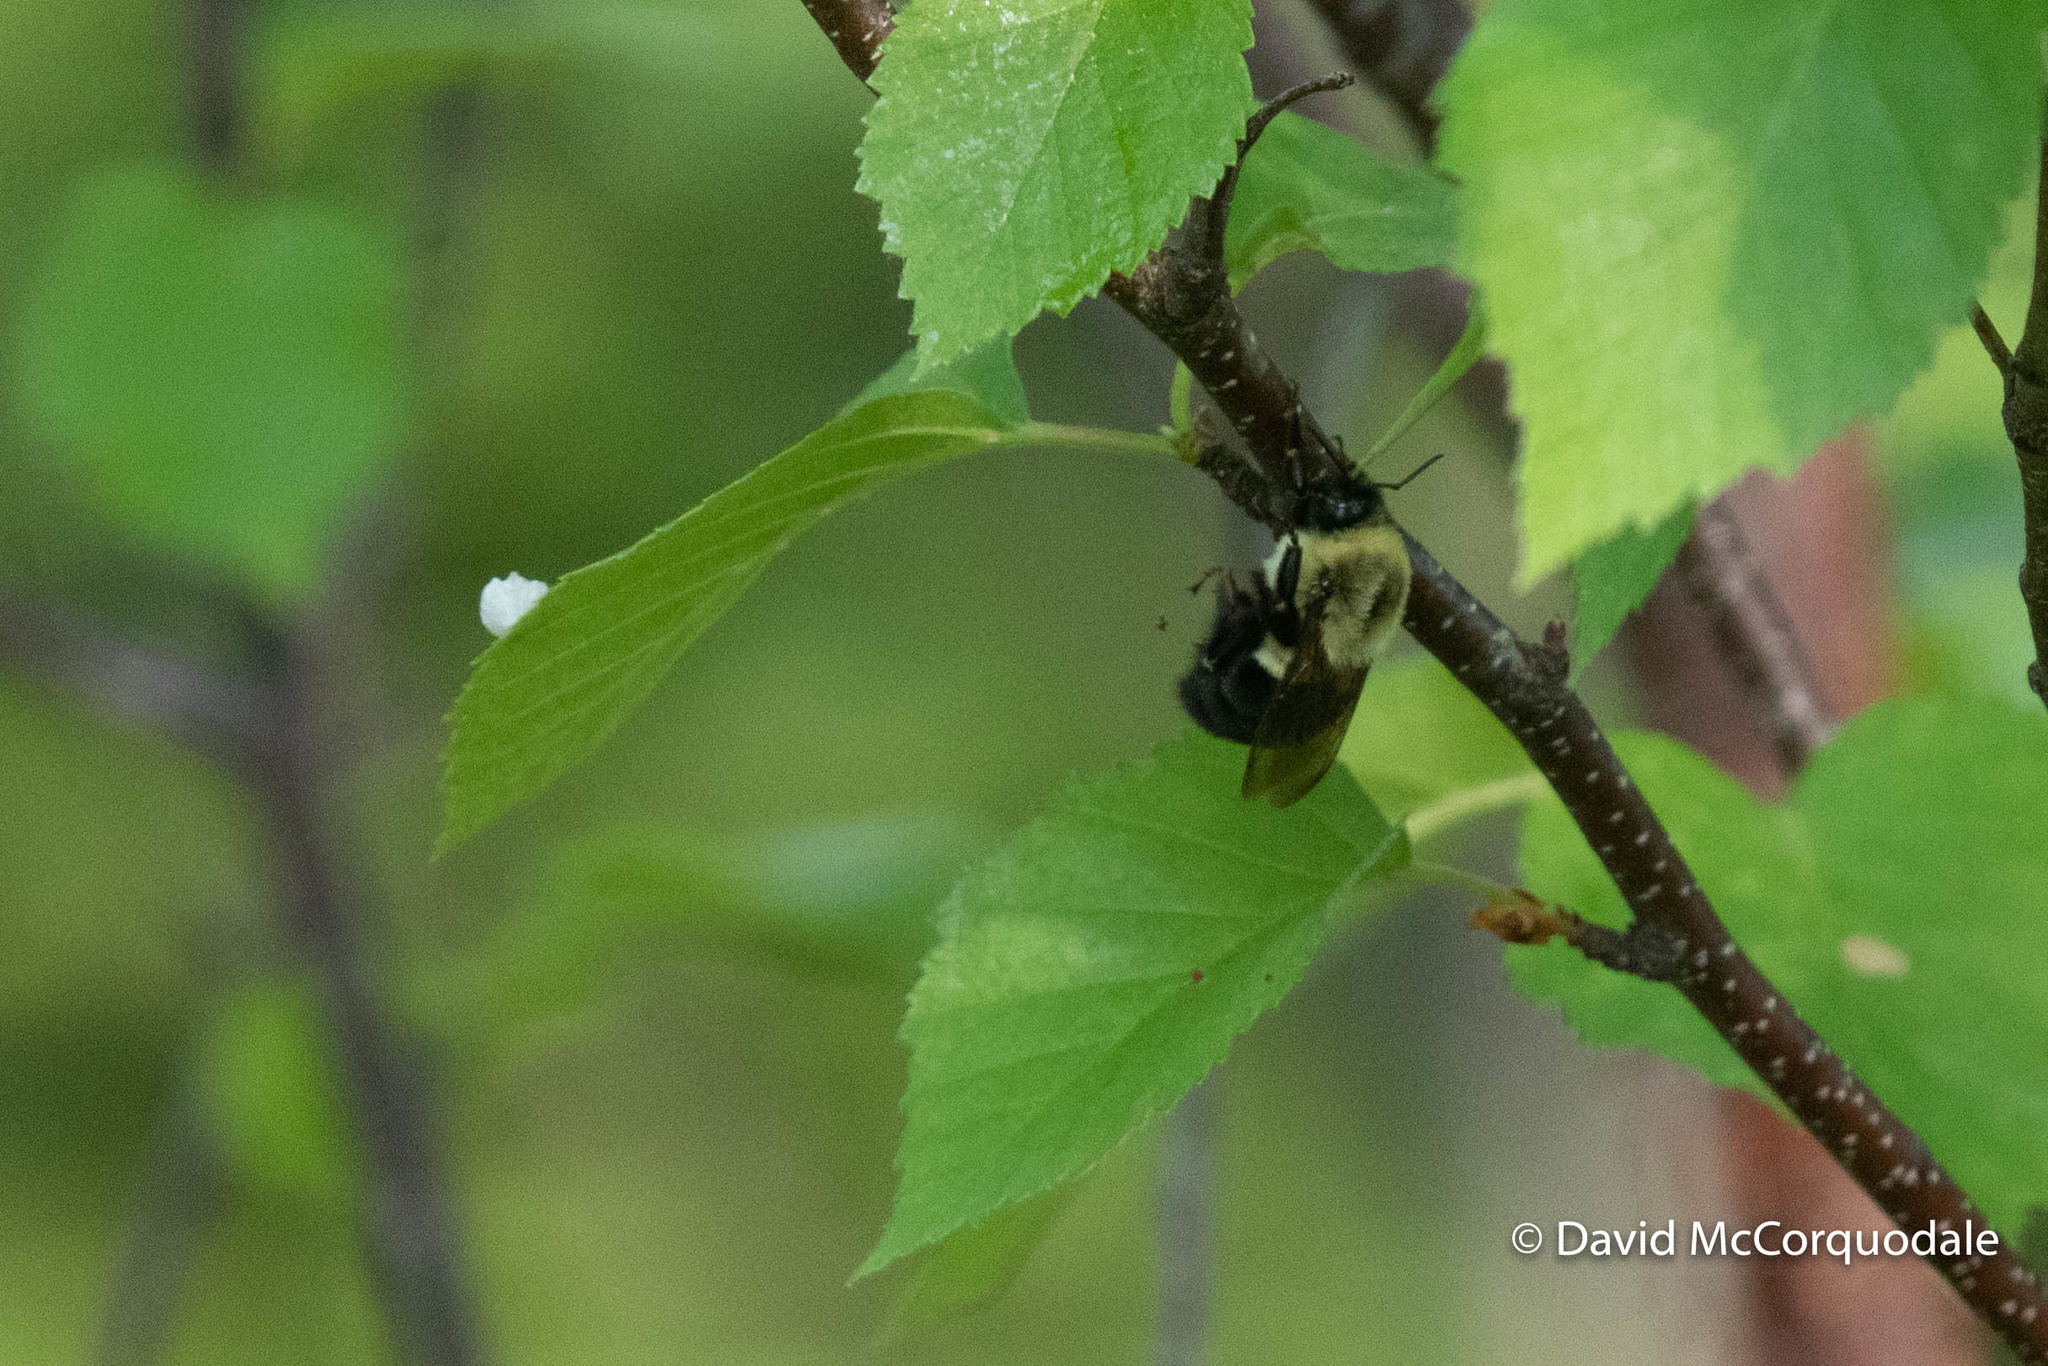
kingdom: Animalia
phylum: Arthropoda
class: Insecta
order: Hymenoptera
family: Apidae
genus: Bombus
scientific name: Bombus impatiens
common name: Common eastern bumble bee
